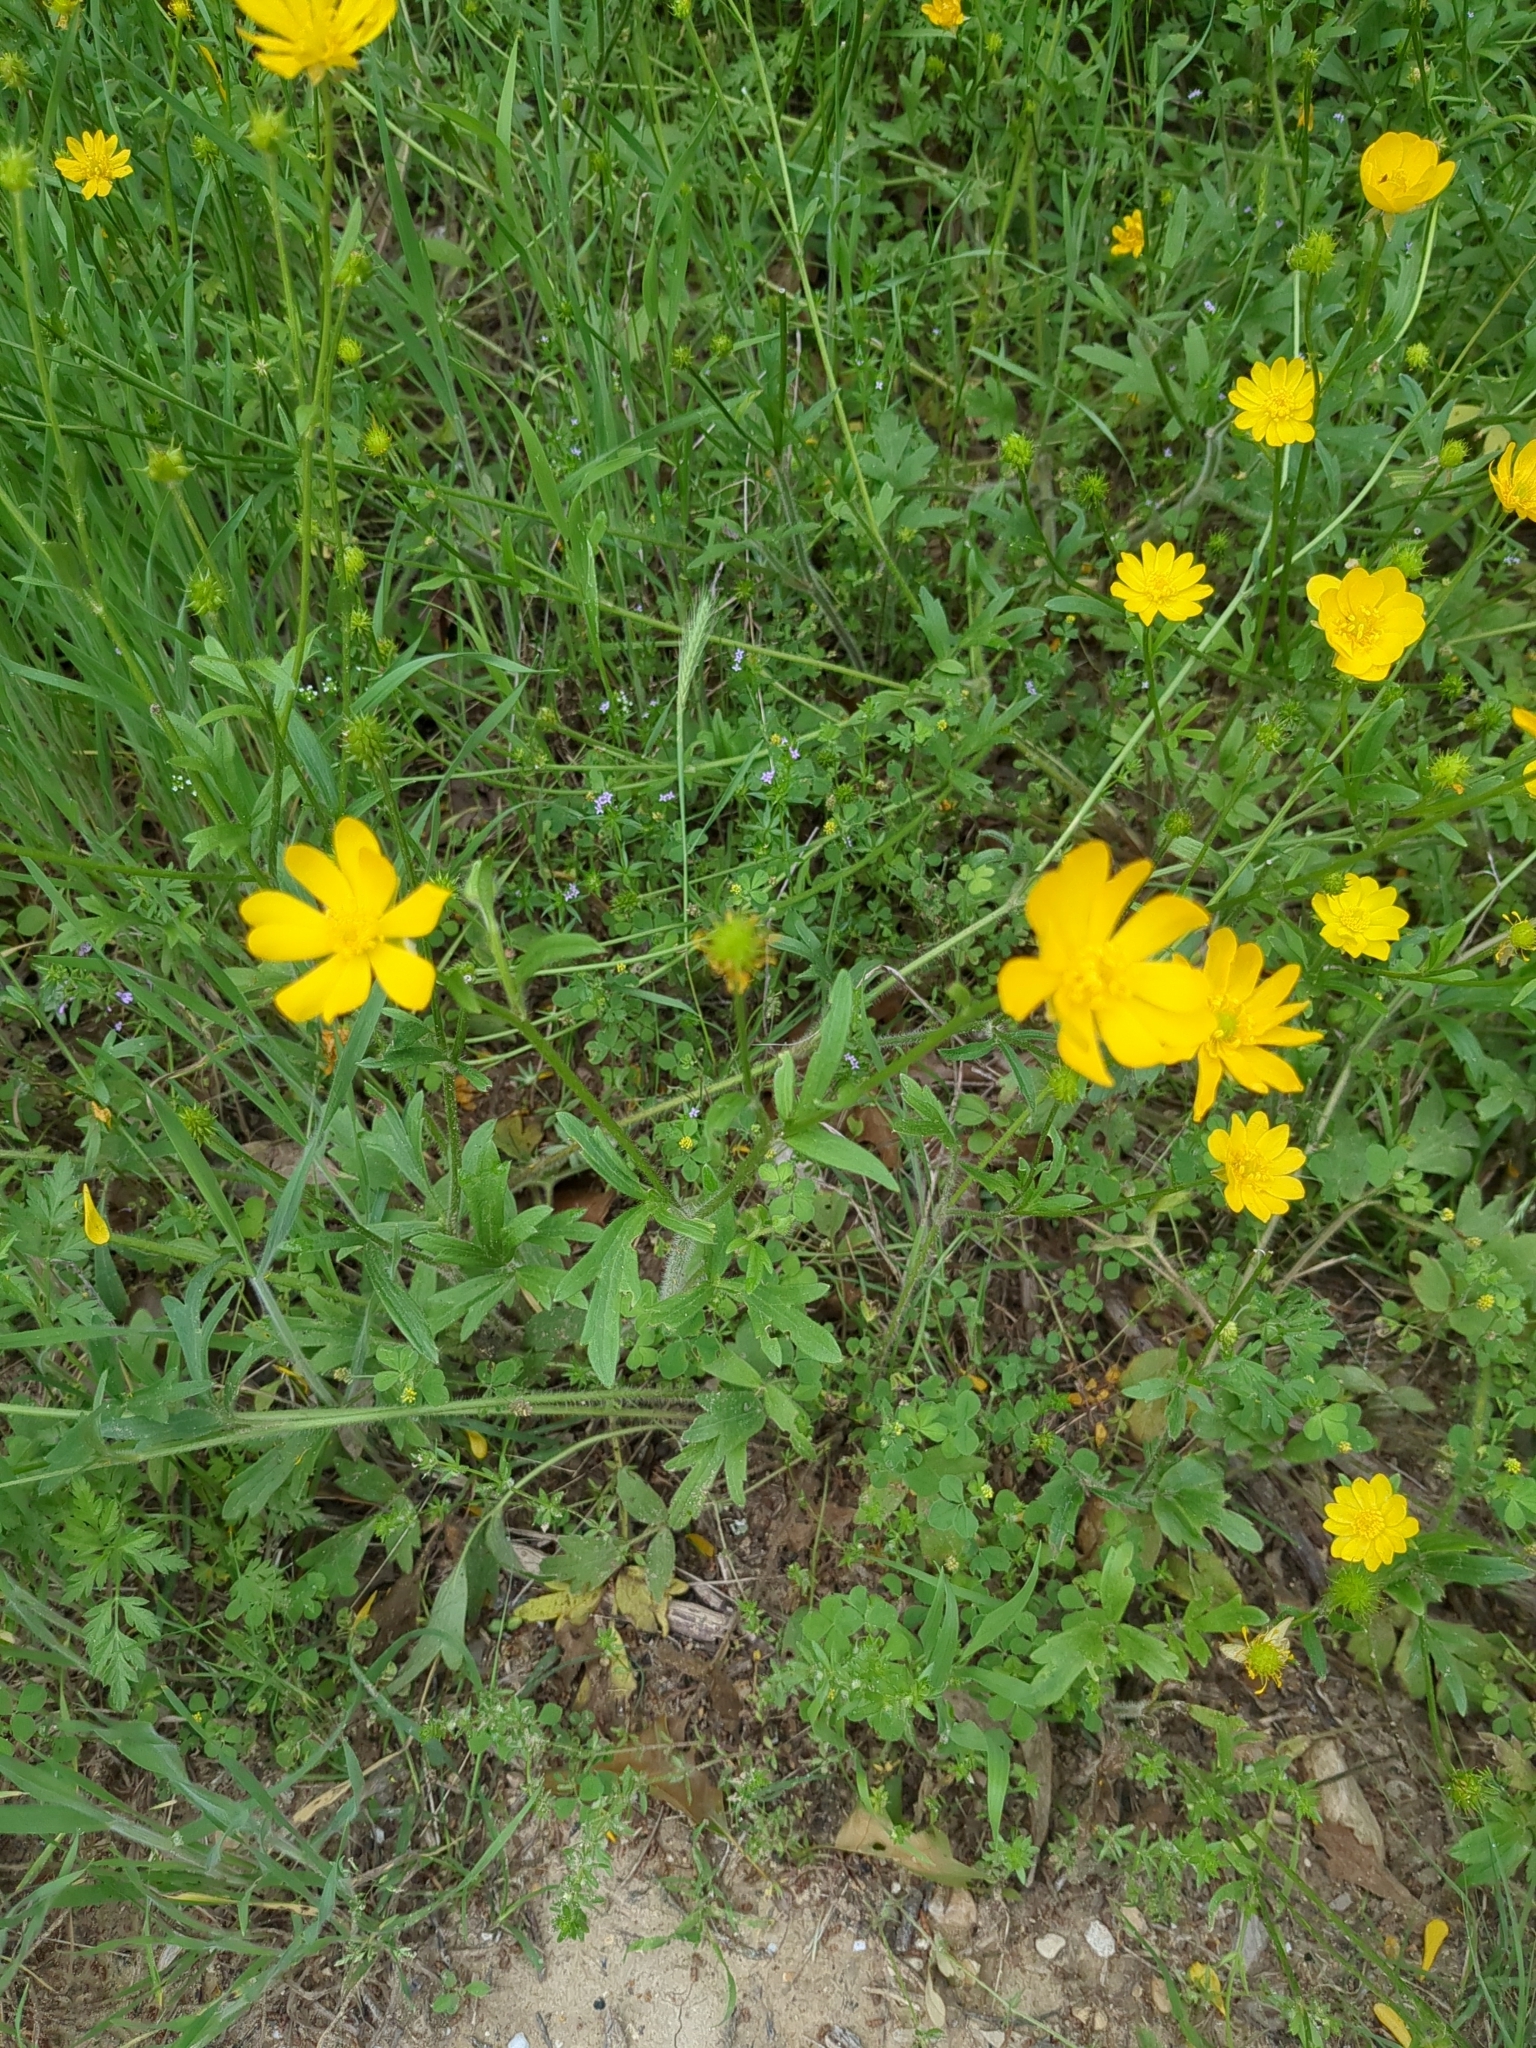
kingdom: Plantae
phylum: Tracheophyta
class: Magnoliopsida
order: Ranunculales
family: Ranunculaceae
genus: Ranunculus
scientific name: Ranunculus macranthus
